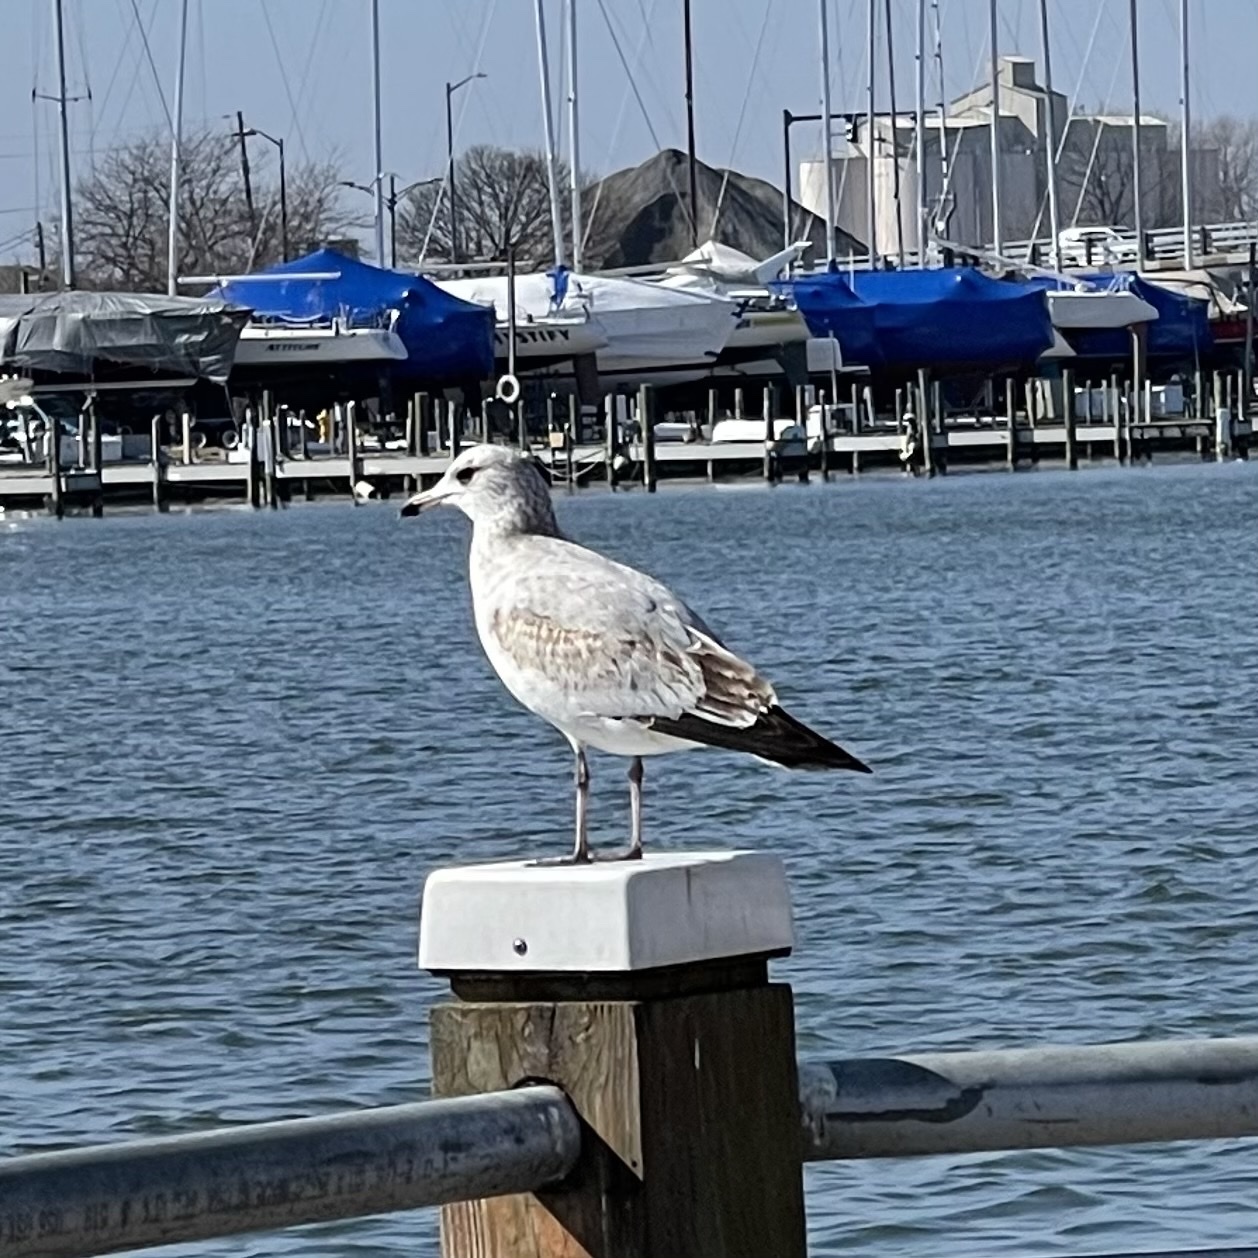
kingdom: Animalia
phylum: Chordata
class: Aves
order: Charadriiformes
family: Laridae
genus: Larus
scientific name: Larus delawarensis
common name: Ring-billed gull
